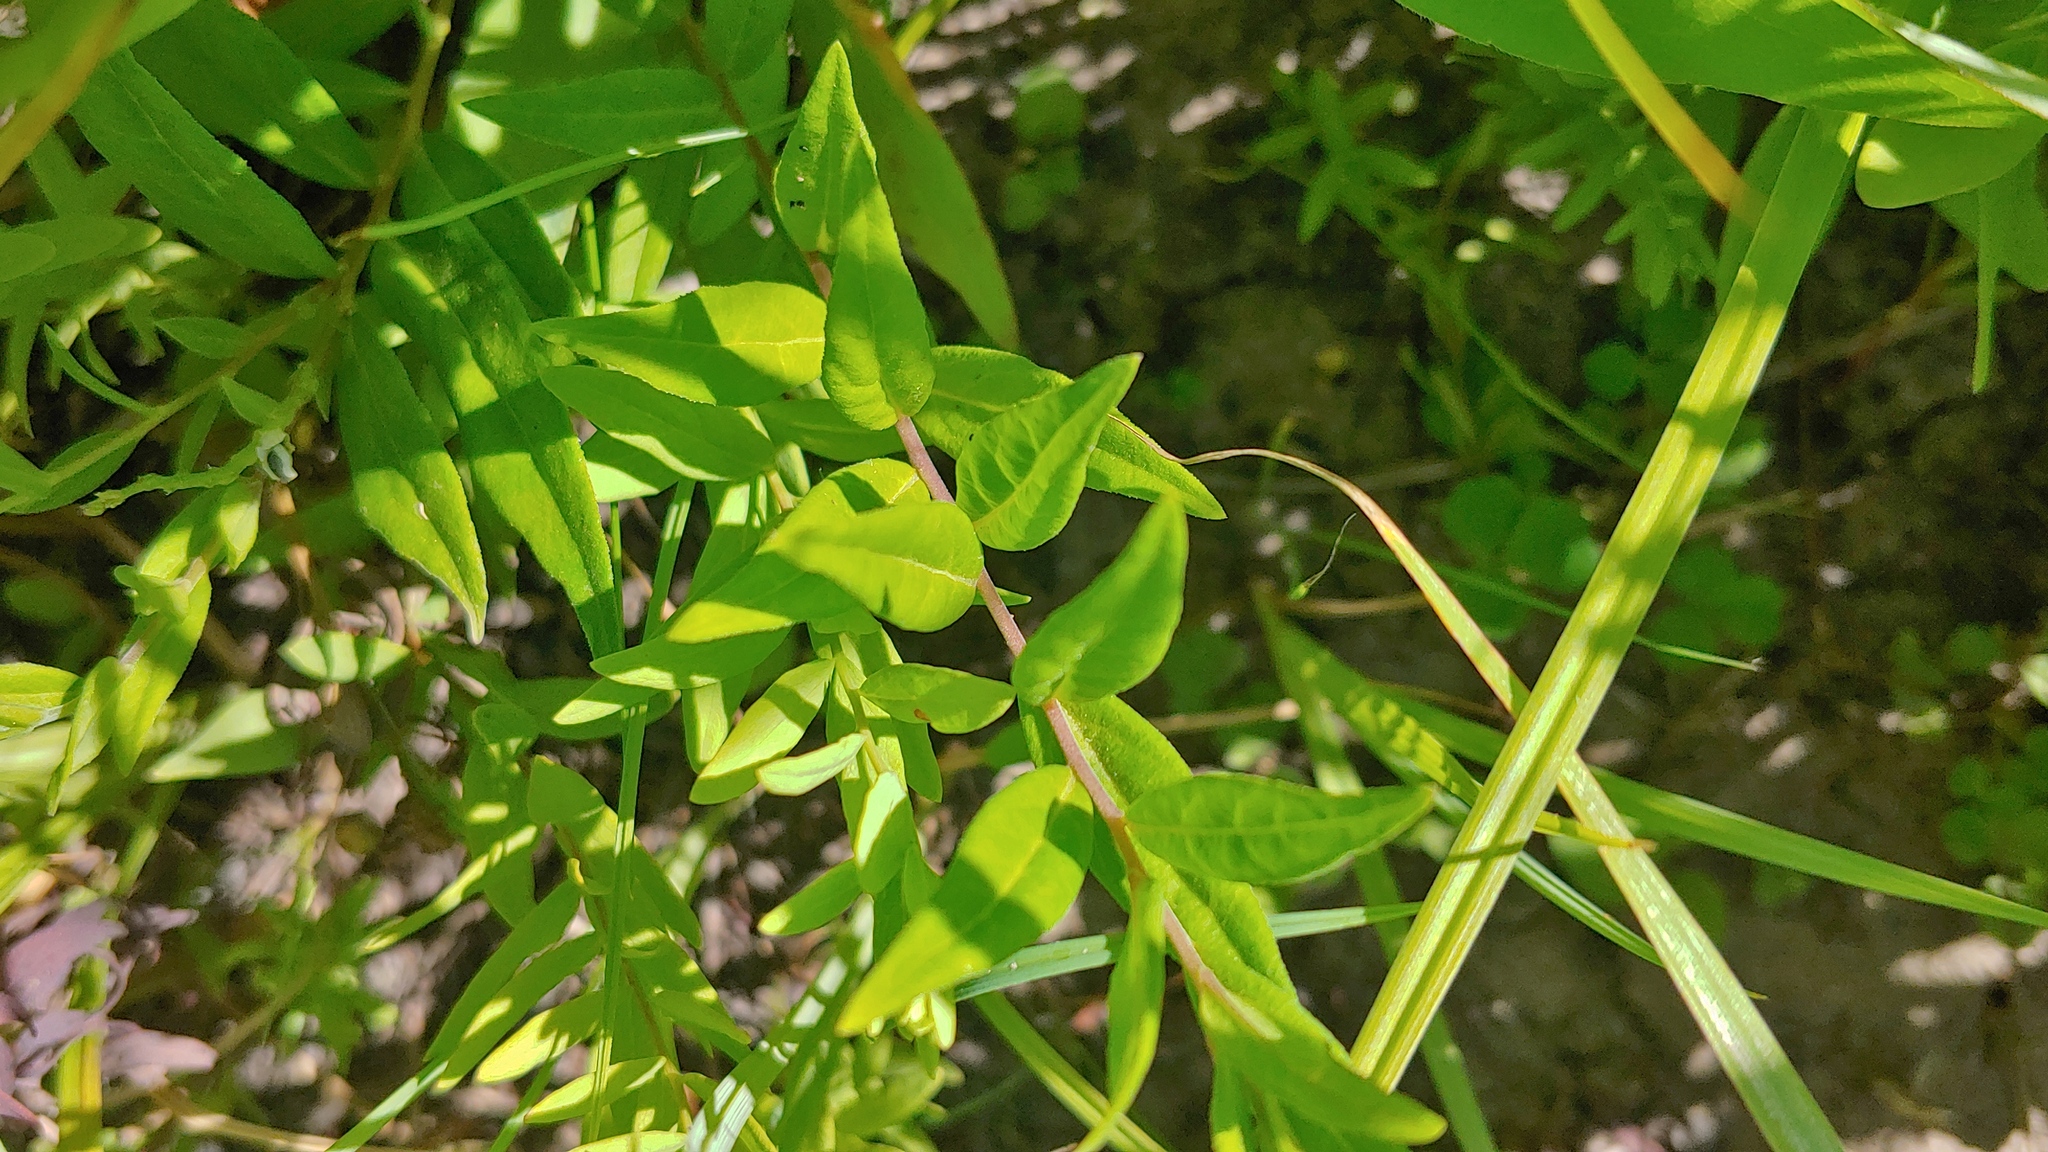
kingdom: Plantae
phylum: Tracheophyta
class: Magnoliopsida
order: Fabales
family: Polygalaceae
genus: Polygala
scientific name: Polygala senega
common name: Seneca snakeroot
